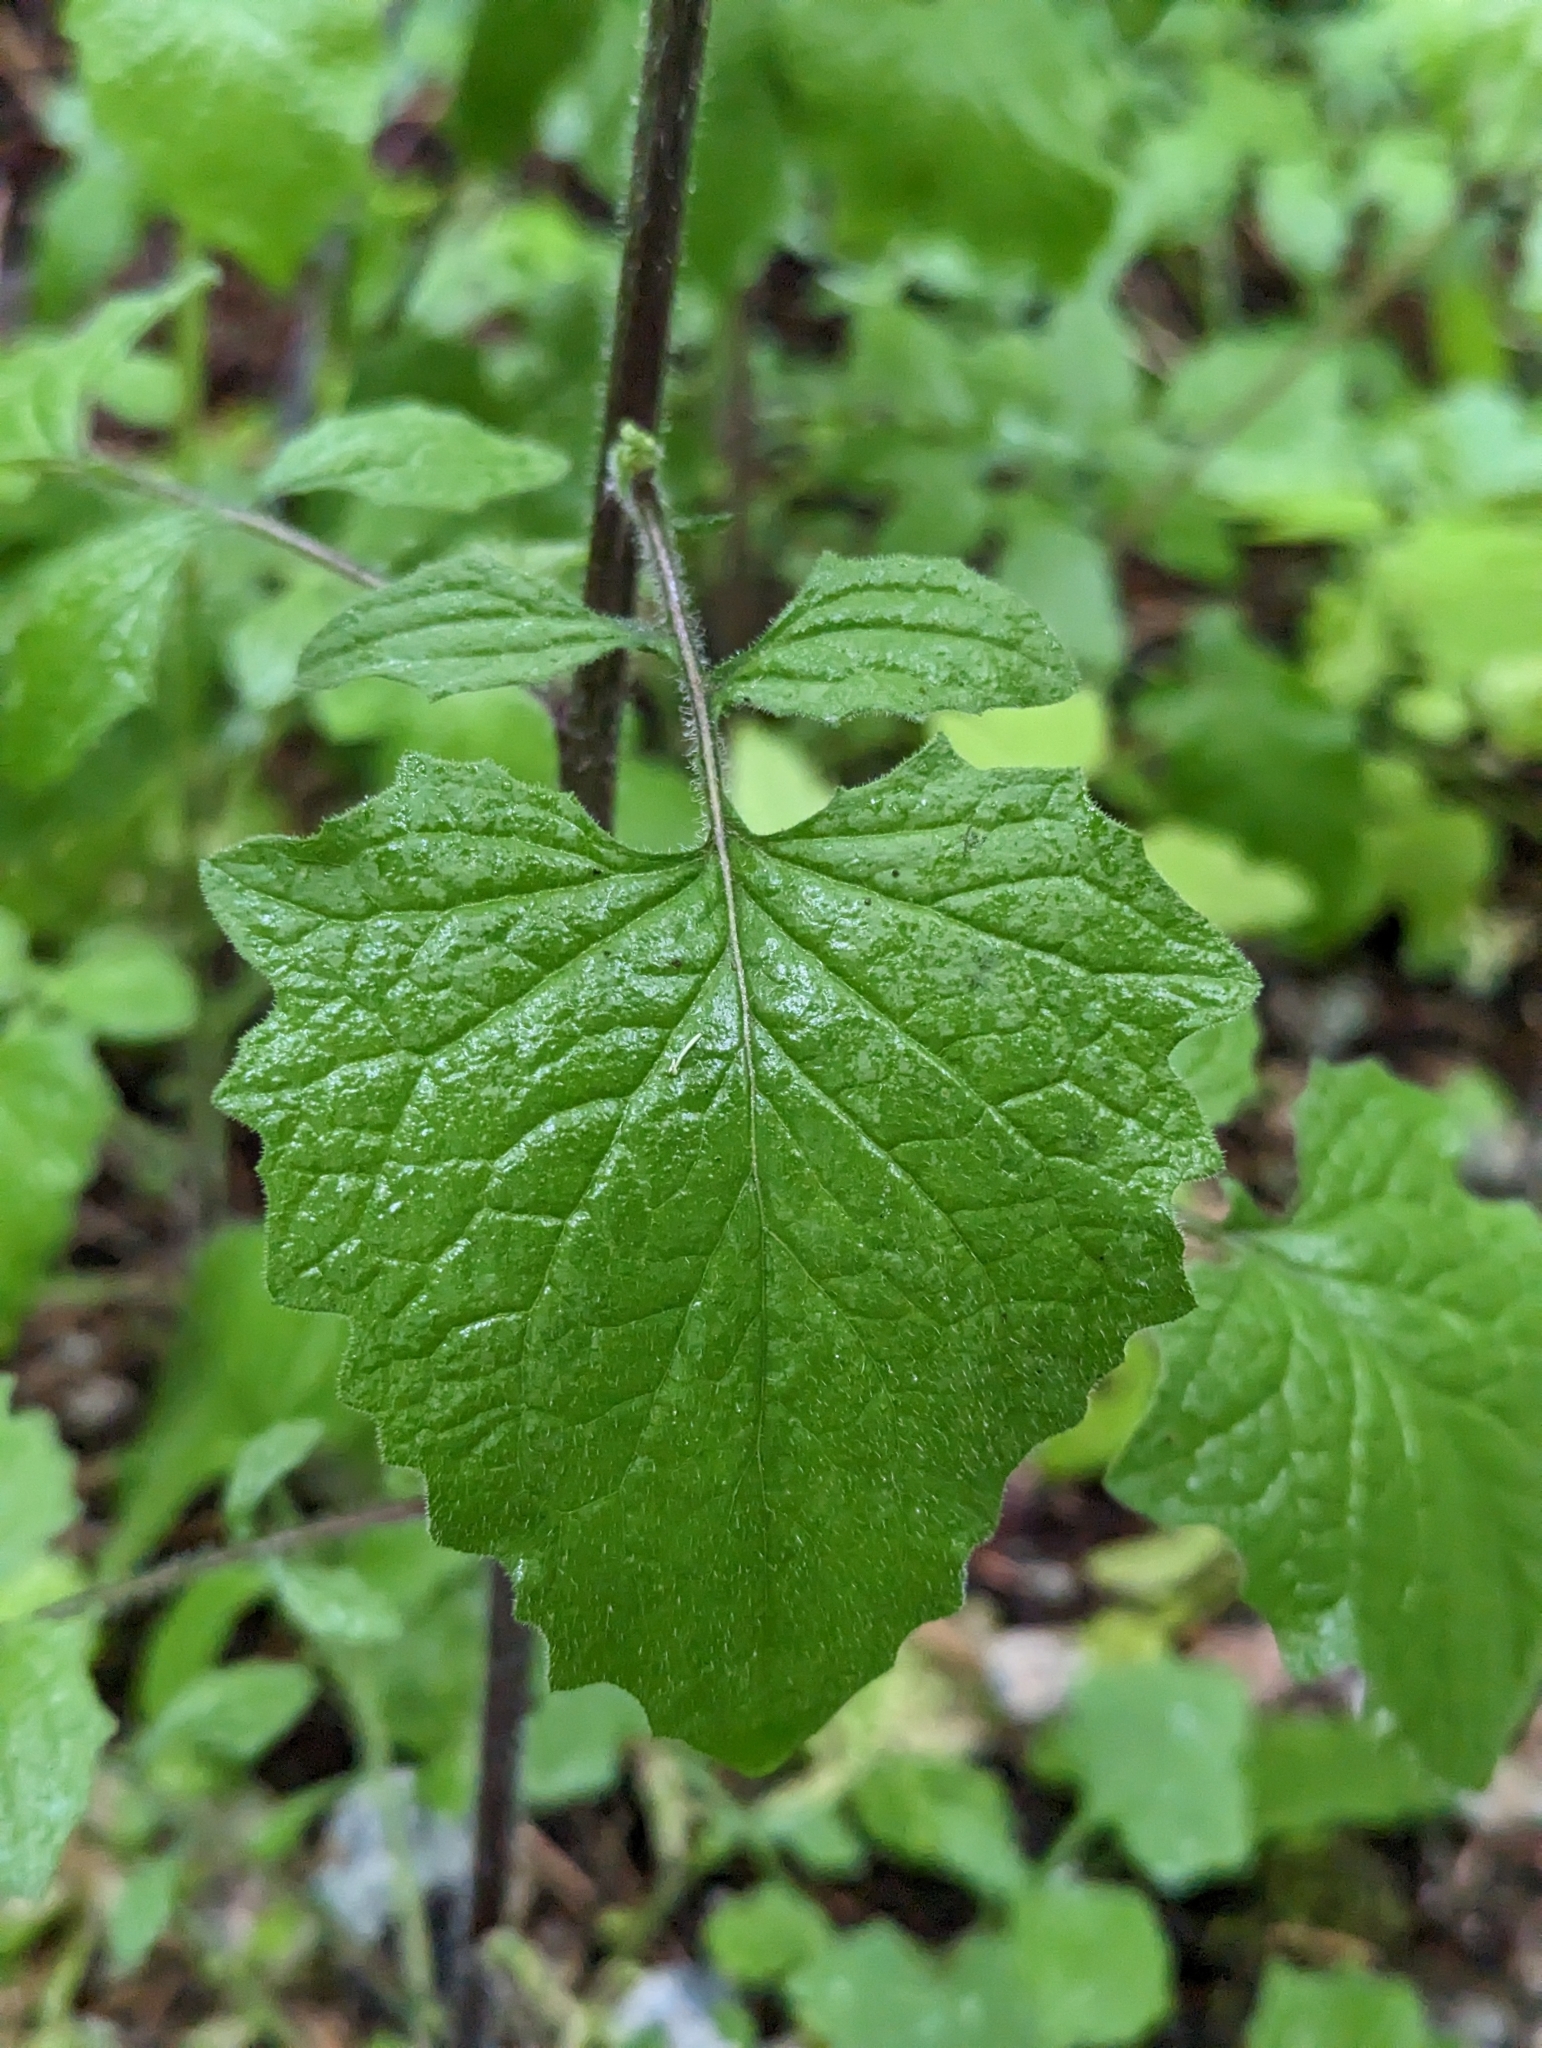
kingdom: Plantae
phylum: Tracheophyta
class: Magnoliopsida
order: Asterales
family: Asteraceae
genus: Lapsana
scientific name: Lapsana communis
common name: Nipplewort
